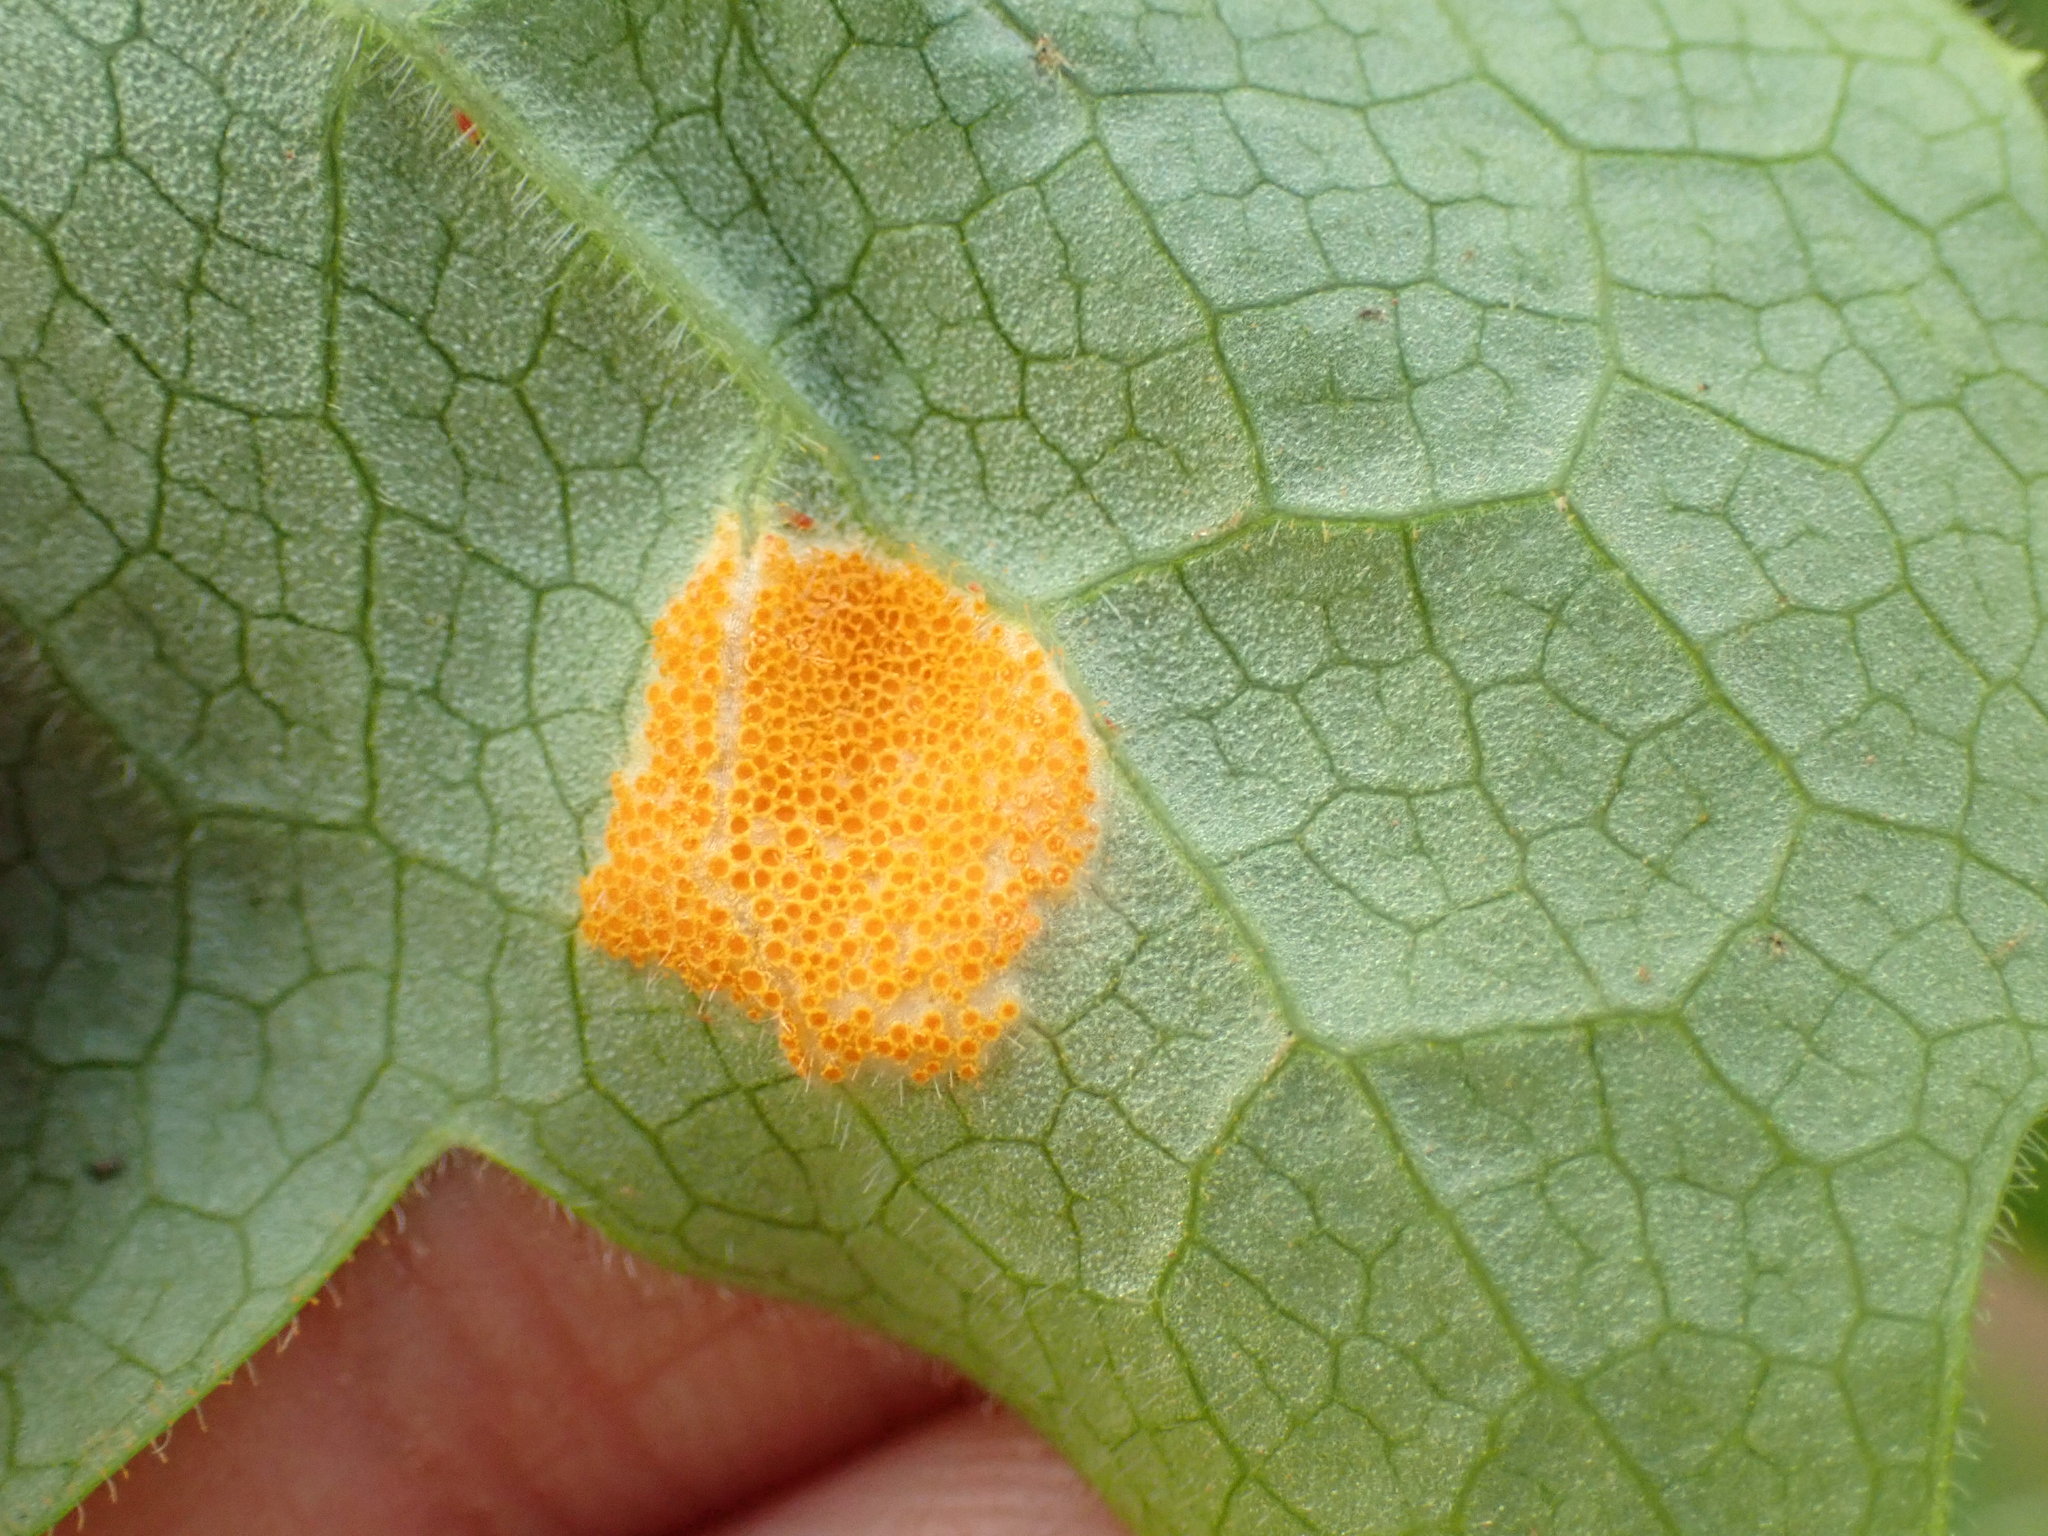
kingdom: Fungi
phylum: Basidiomycota
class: Pucciniomycetes
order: Pucciniales
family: Pucciniaceae
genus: Puccinia
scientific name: Puccinia podophylli
